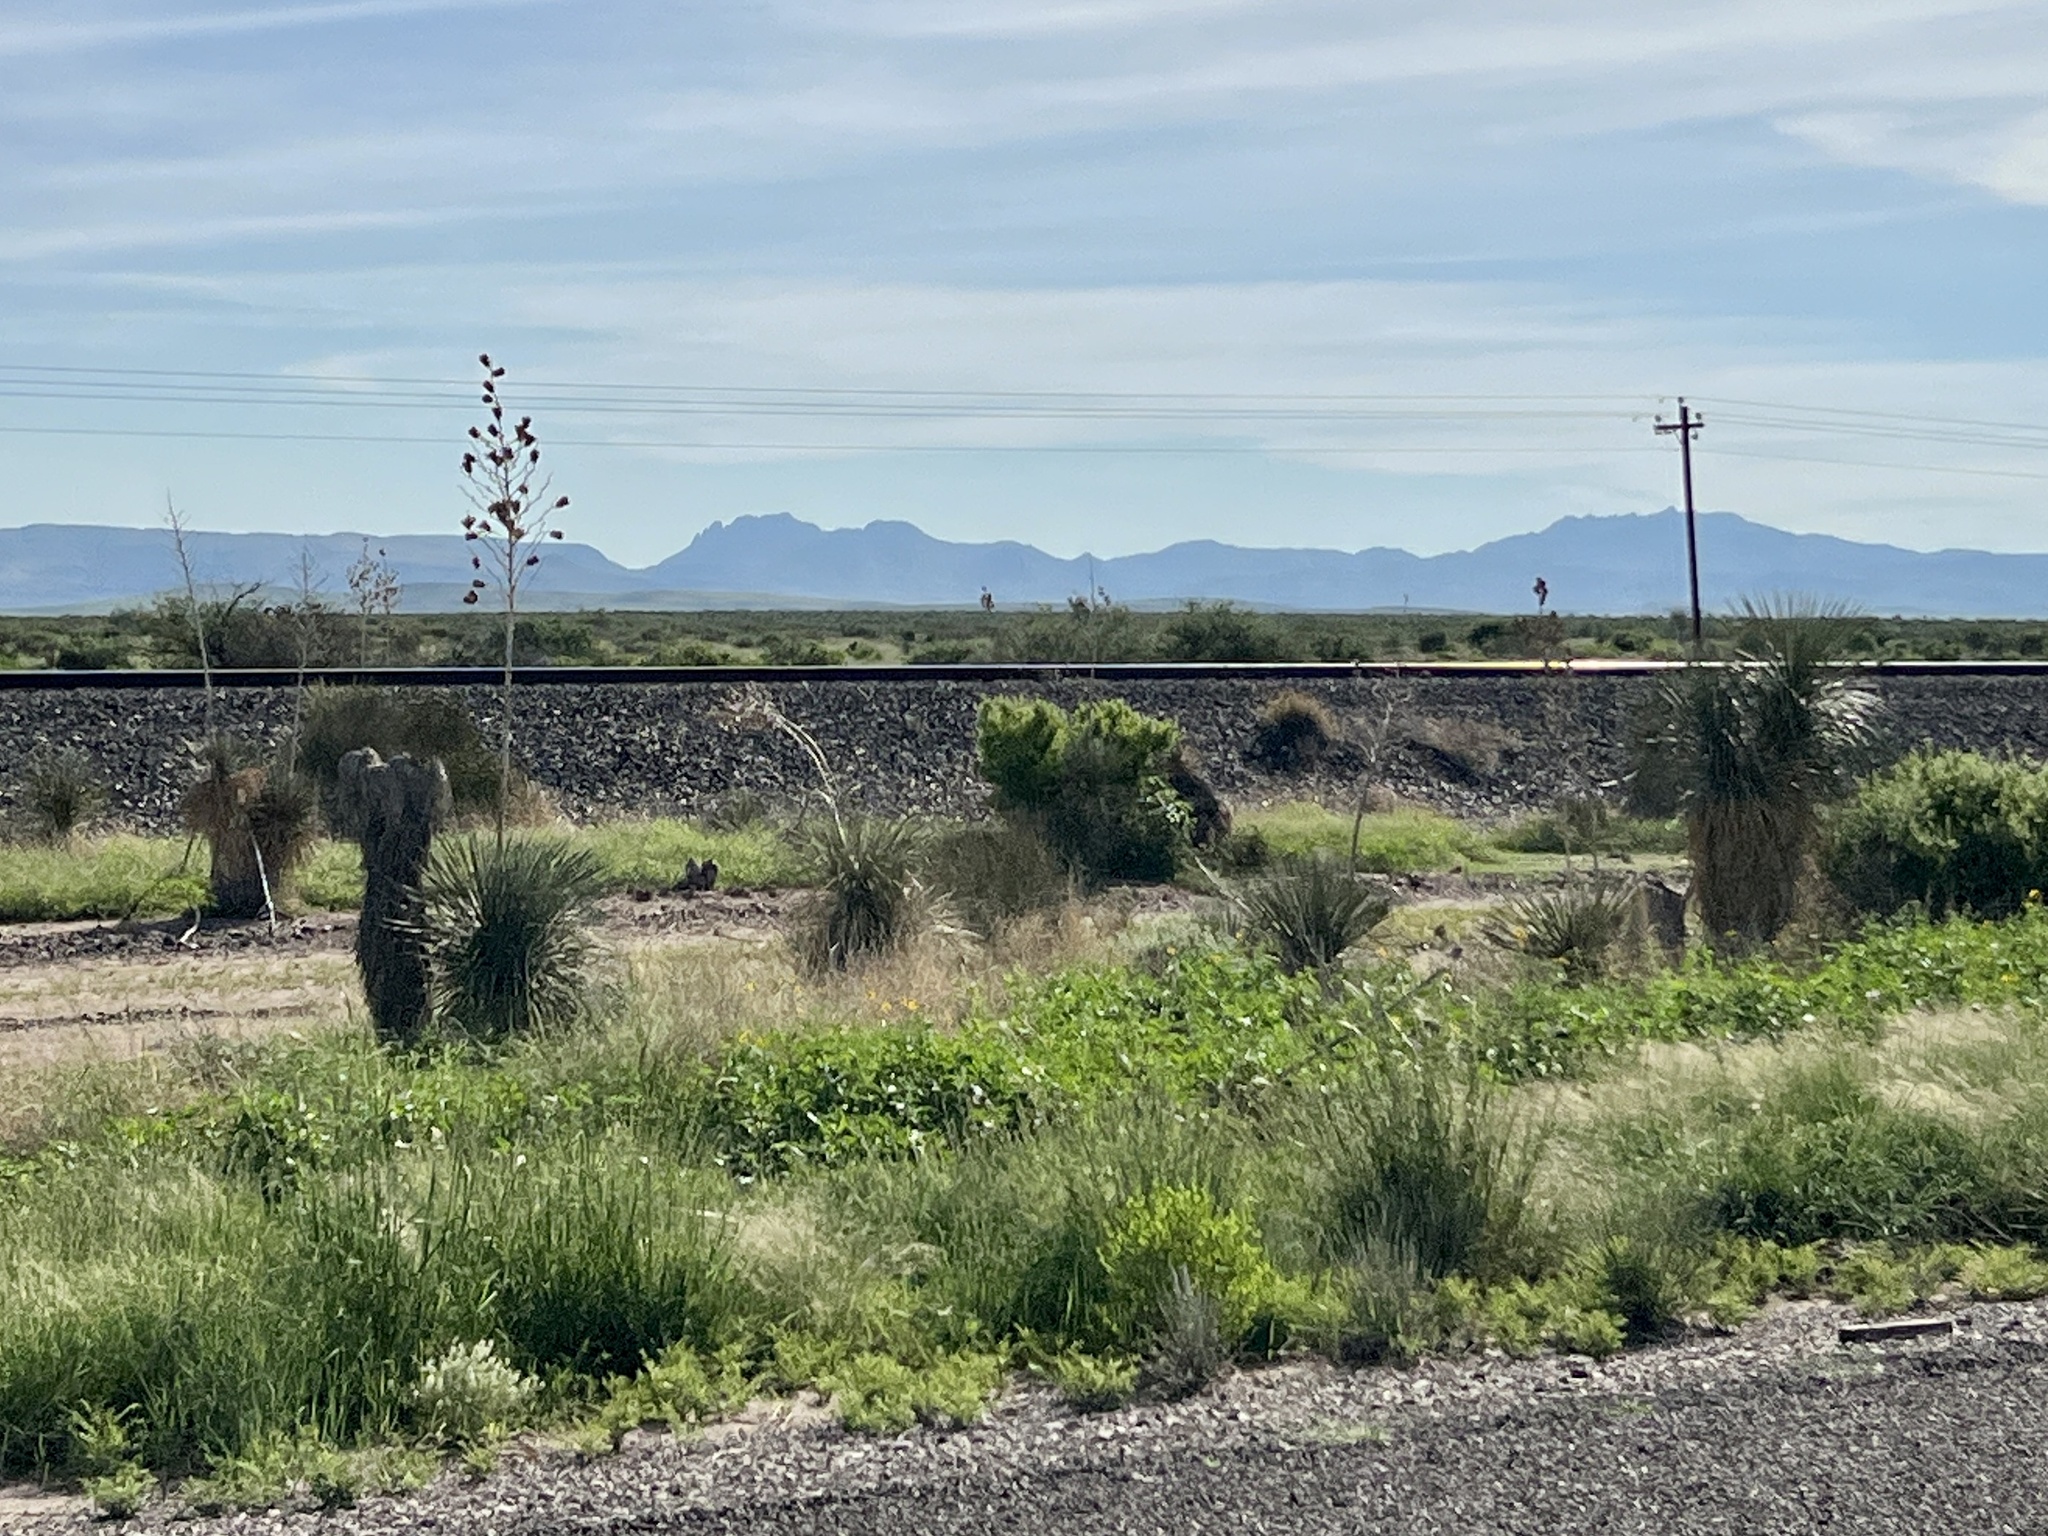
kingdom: Plantae
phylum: Tracheophyta
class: Liliopsida
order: Asparagales
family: Asparagaceae
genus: Yucca
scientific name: Yucca elata
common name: Palmella
